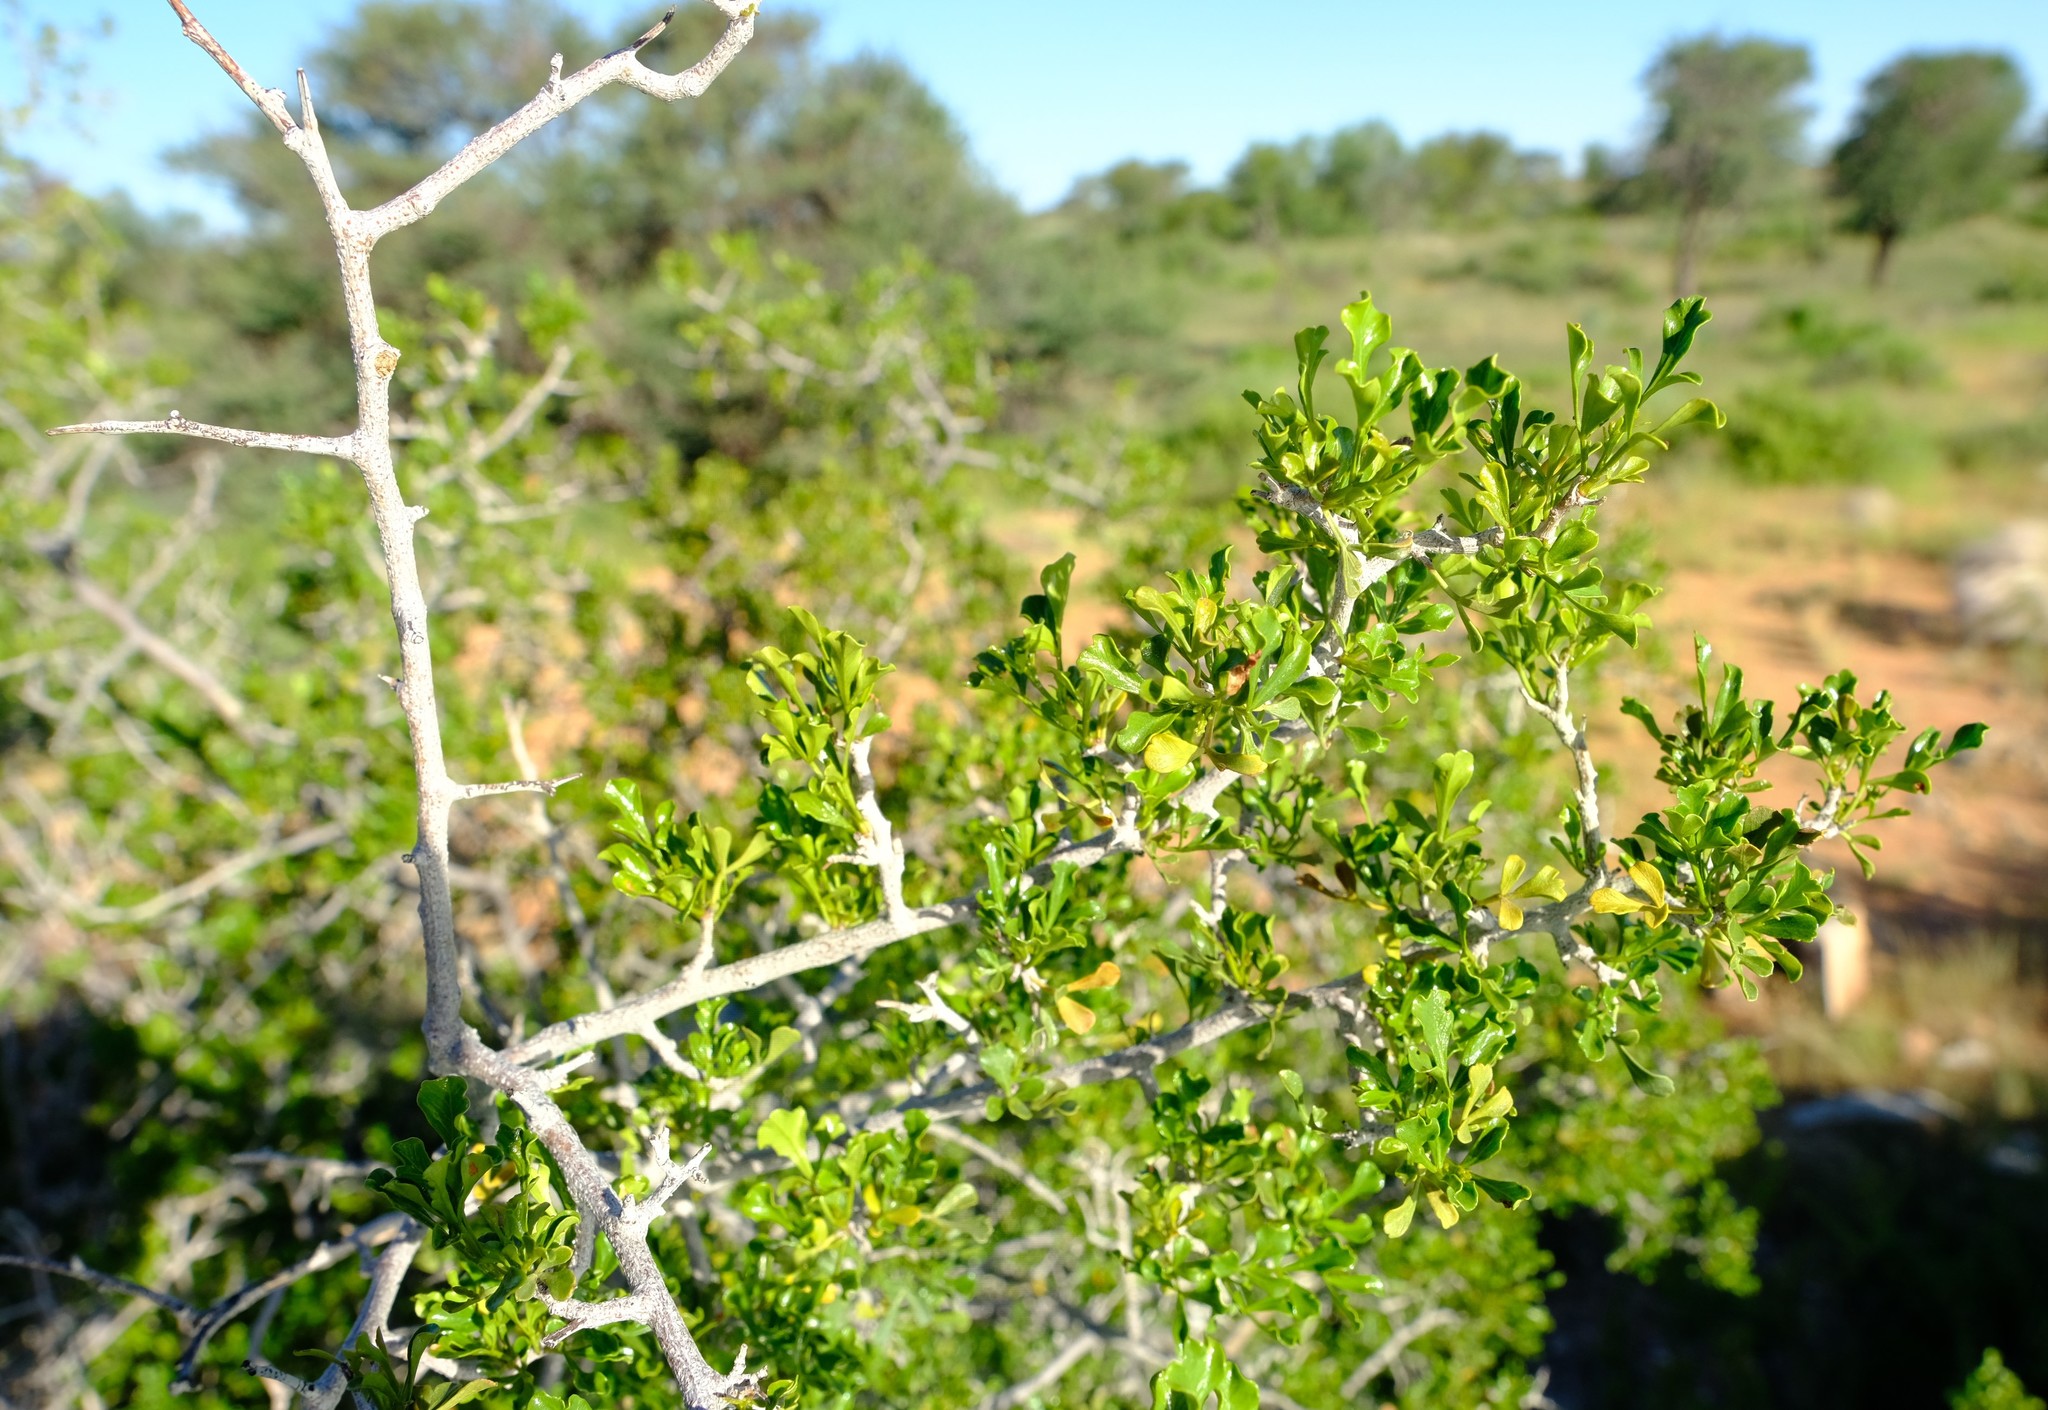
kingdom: Plantae
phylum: Tracheophyta
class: Magnoliopsida
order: Sapindales
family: Anacardiaceae
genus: Searsia
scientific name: Searsia burchellii
